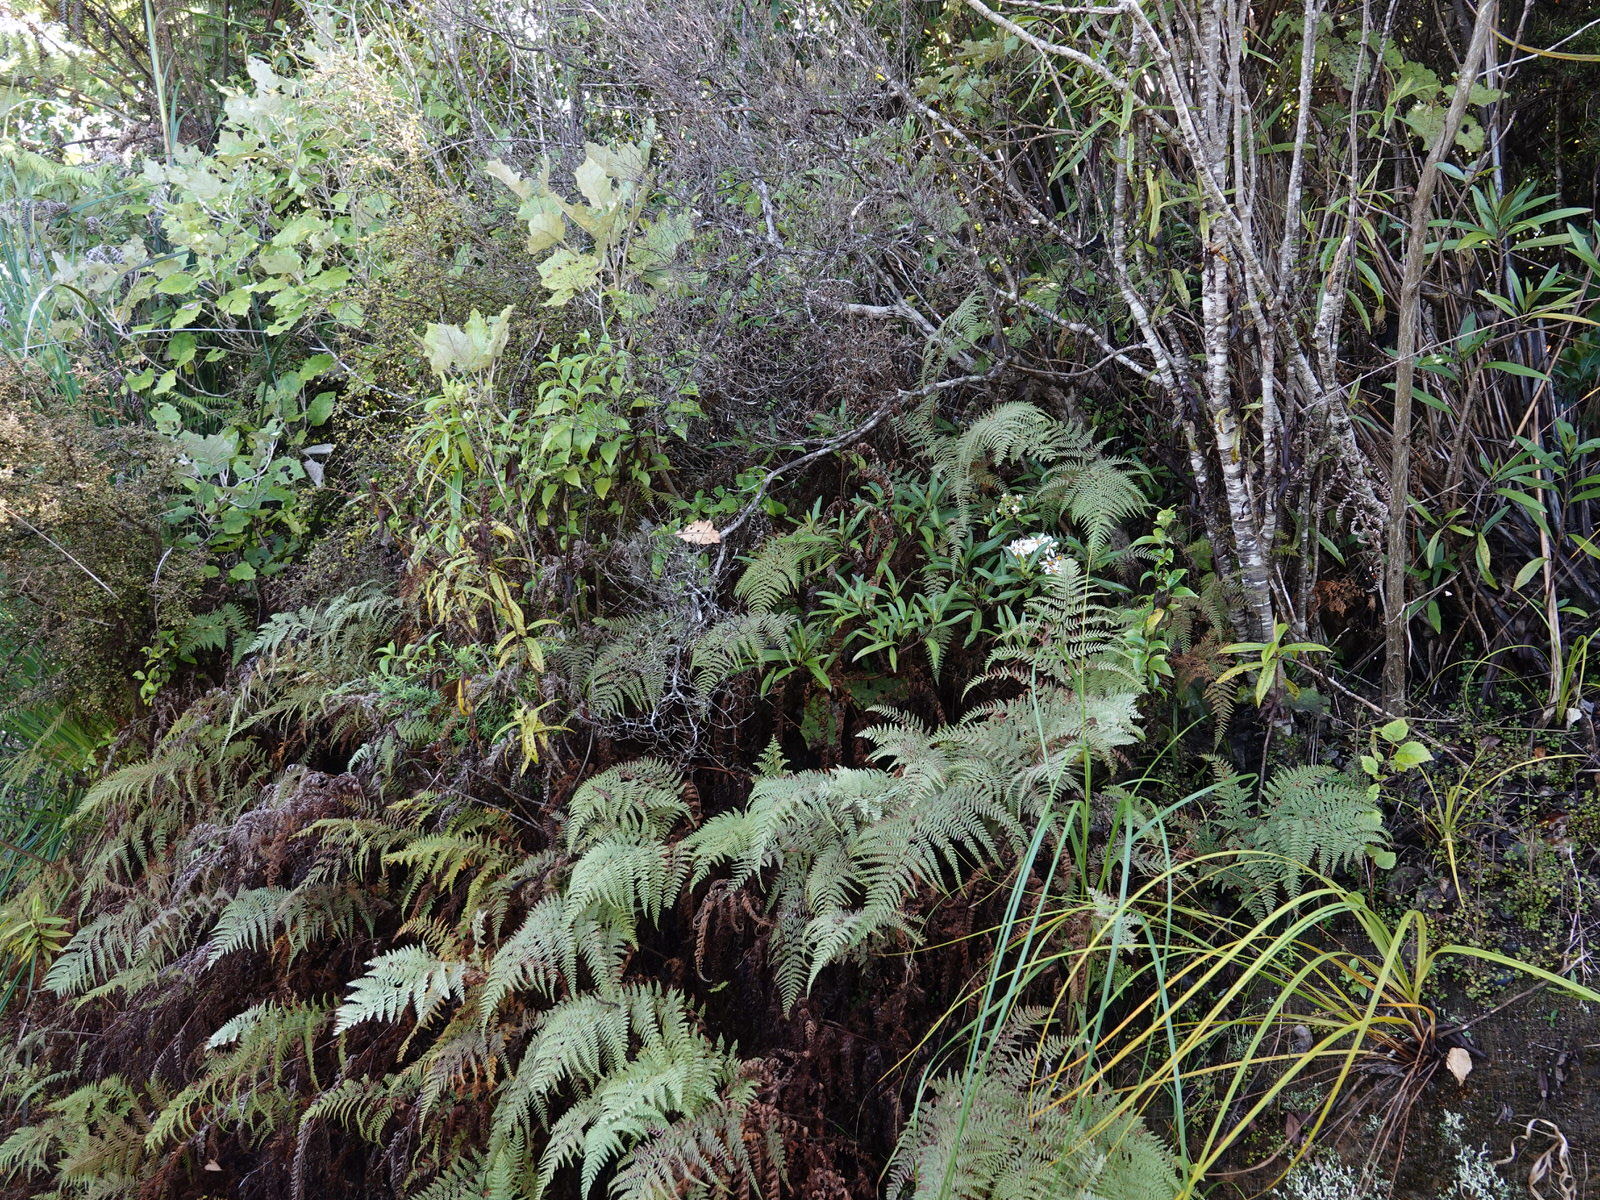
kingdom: Plantae
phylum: Tracheophyta
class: Magnoliopsida
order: Asterales
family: Asteraceae
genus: Brachyglottis
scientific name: Brachyglottis kirkii
